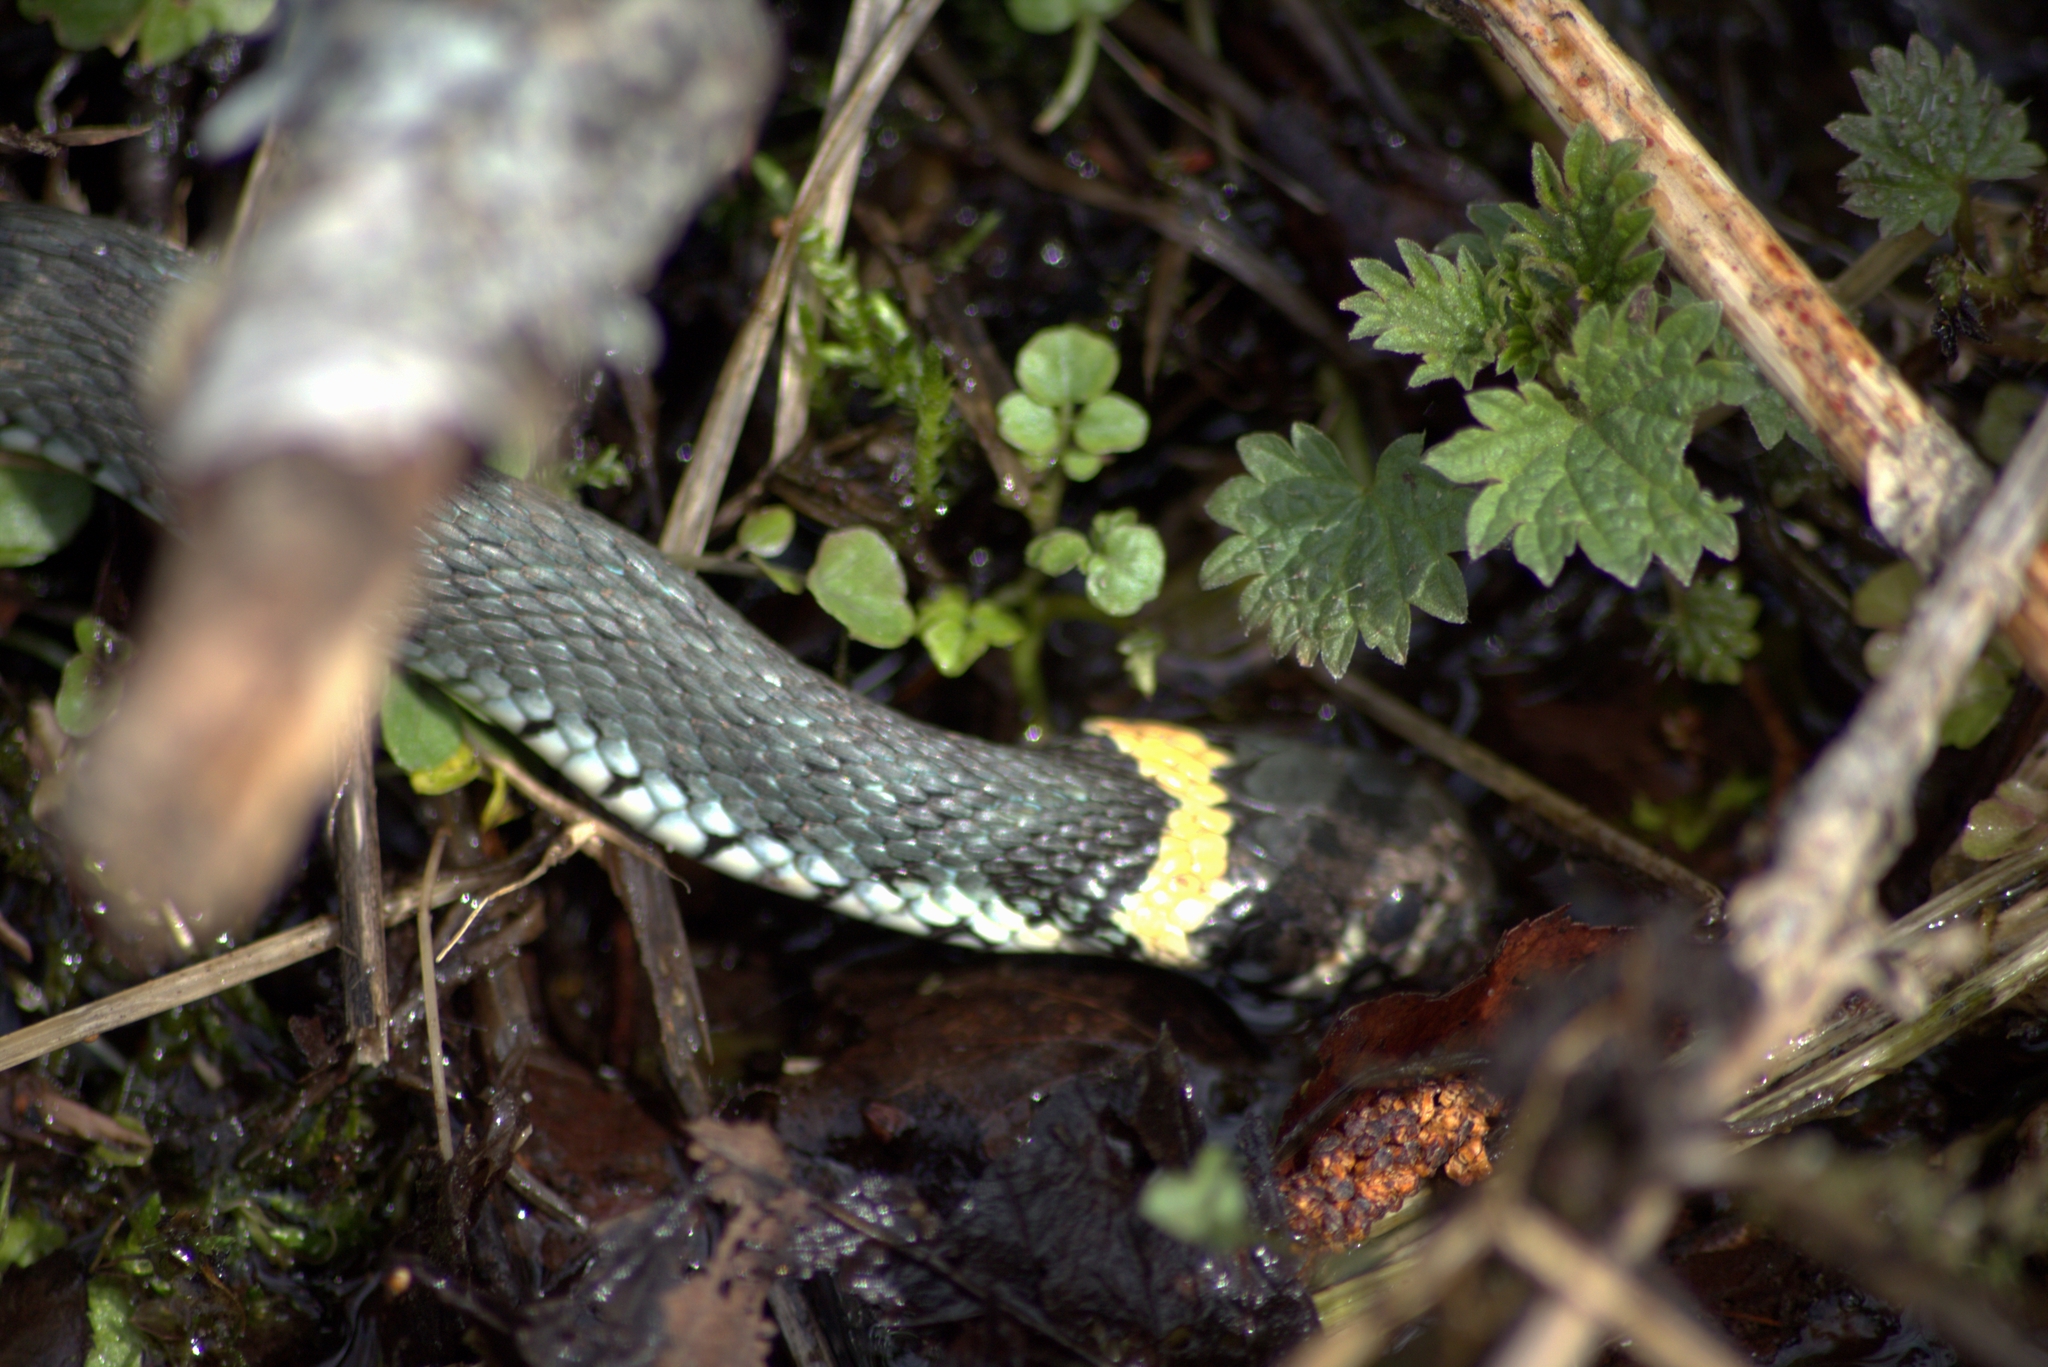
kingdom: Animalia
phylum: Chordata
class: Squamata
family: Colubridae
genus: Natrix
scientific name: Natrix natrix
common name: Grass snake
